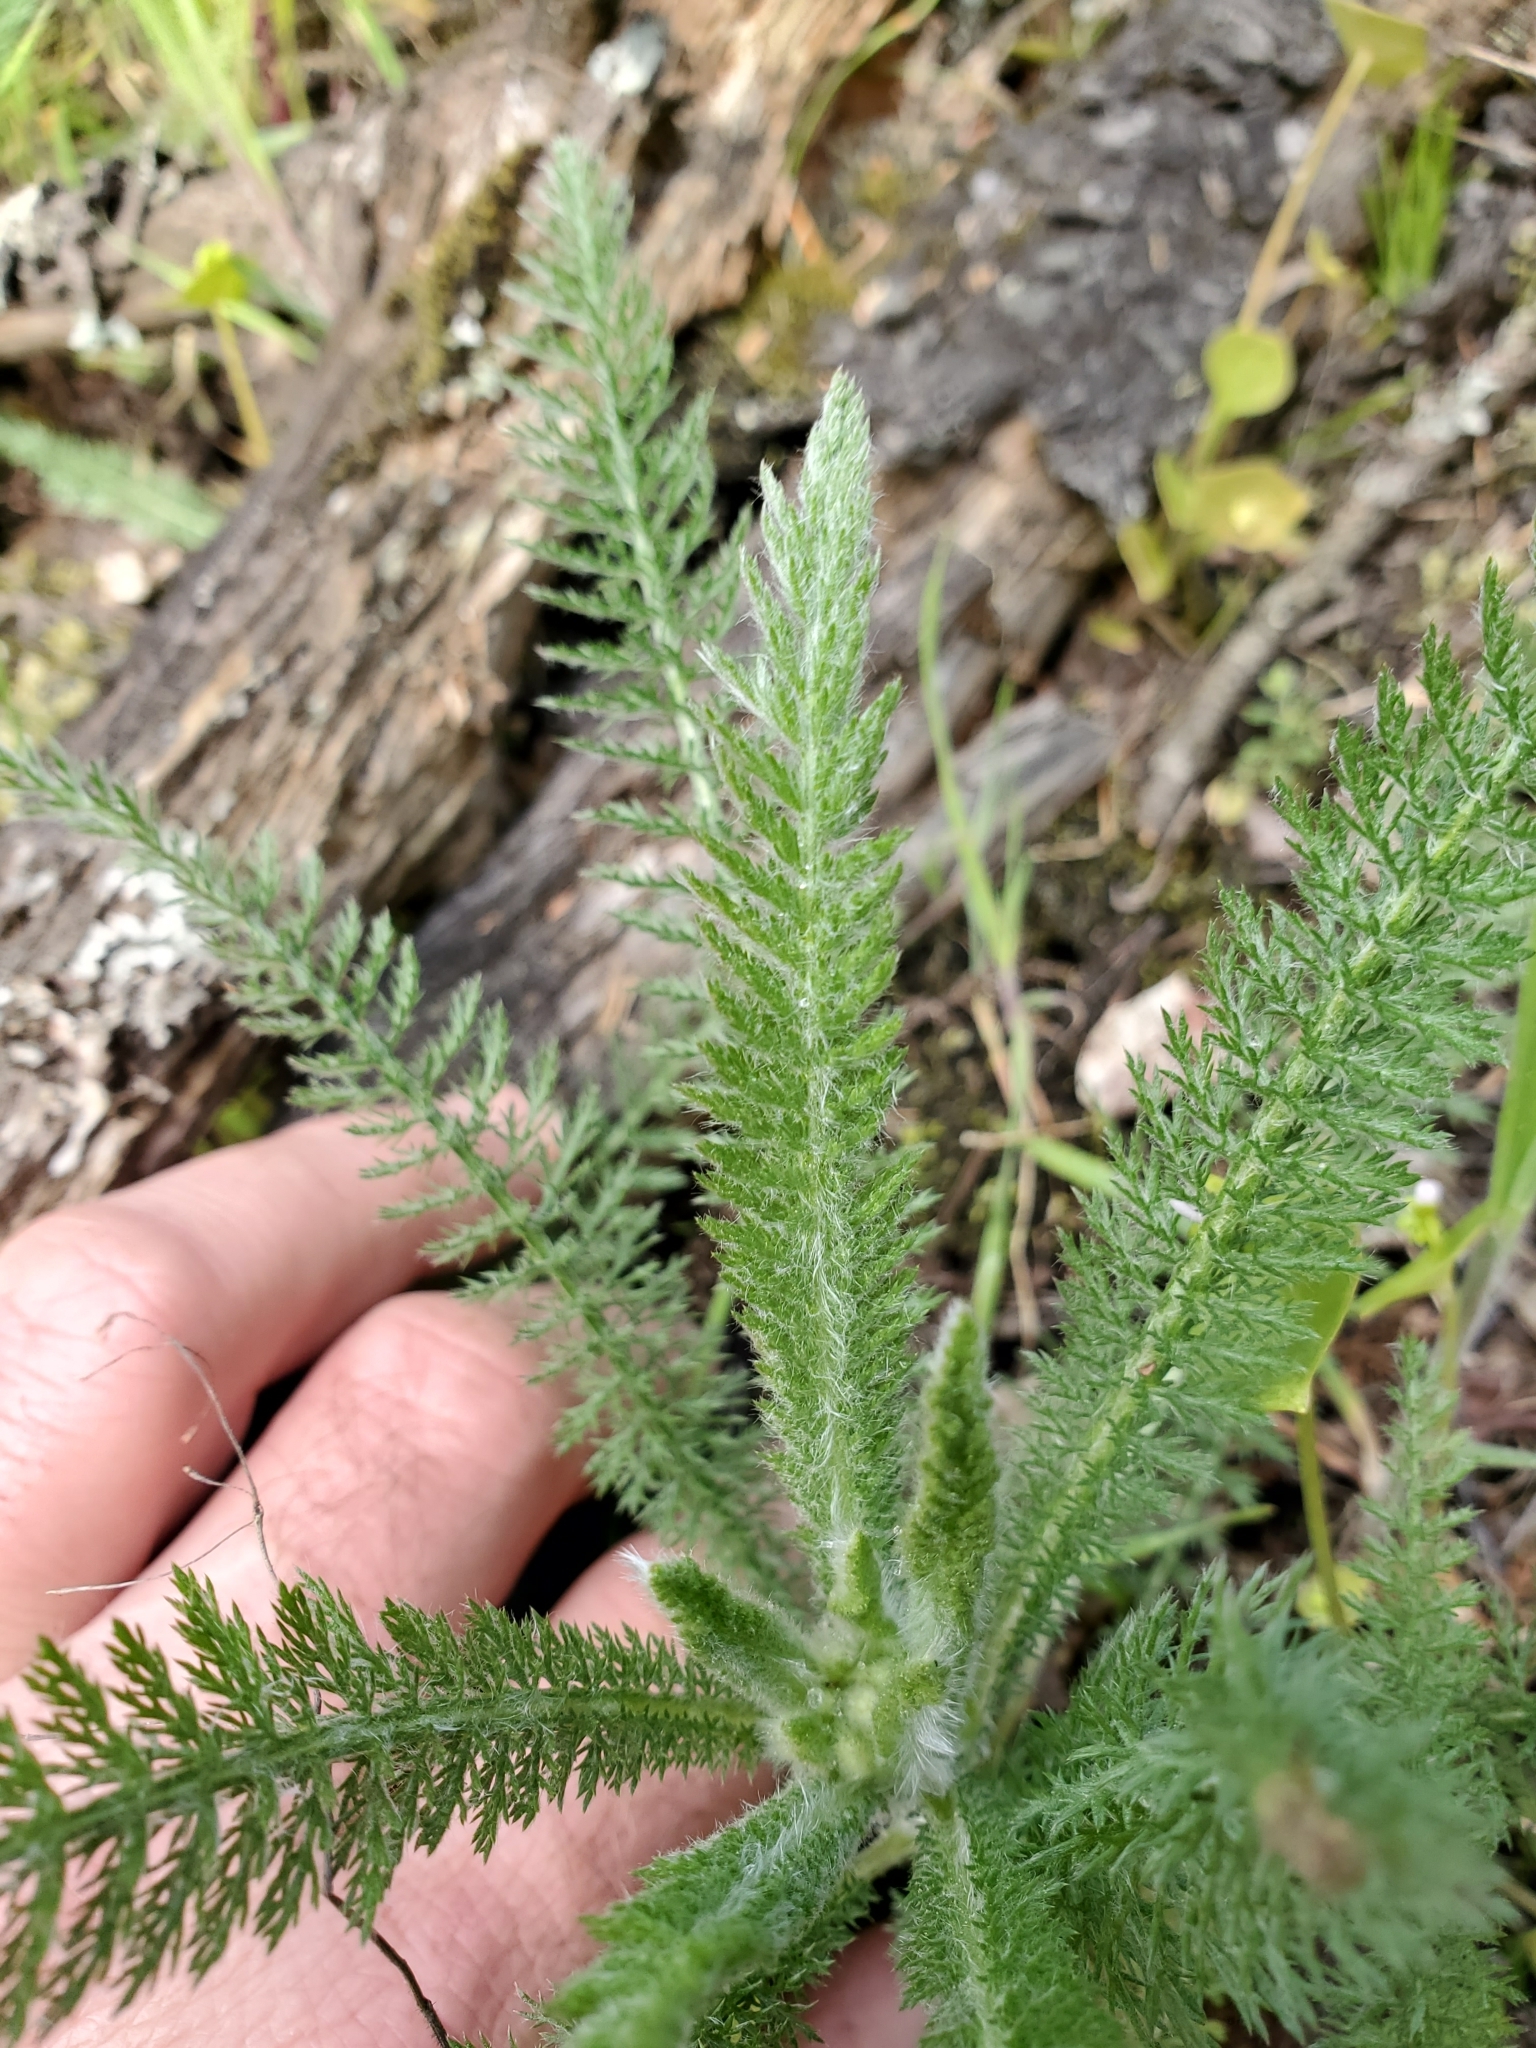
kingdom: Plantae
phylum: Tracheophyta
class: Magnoliopsida
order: Asterales
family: Asteraceae
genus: Achillea
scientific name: Achillea millefolium
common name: Yarrow
